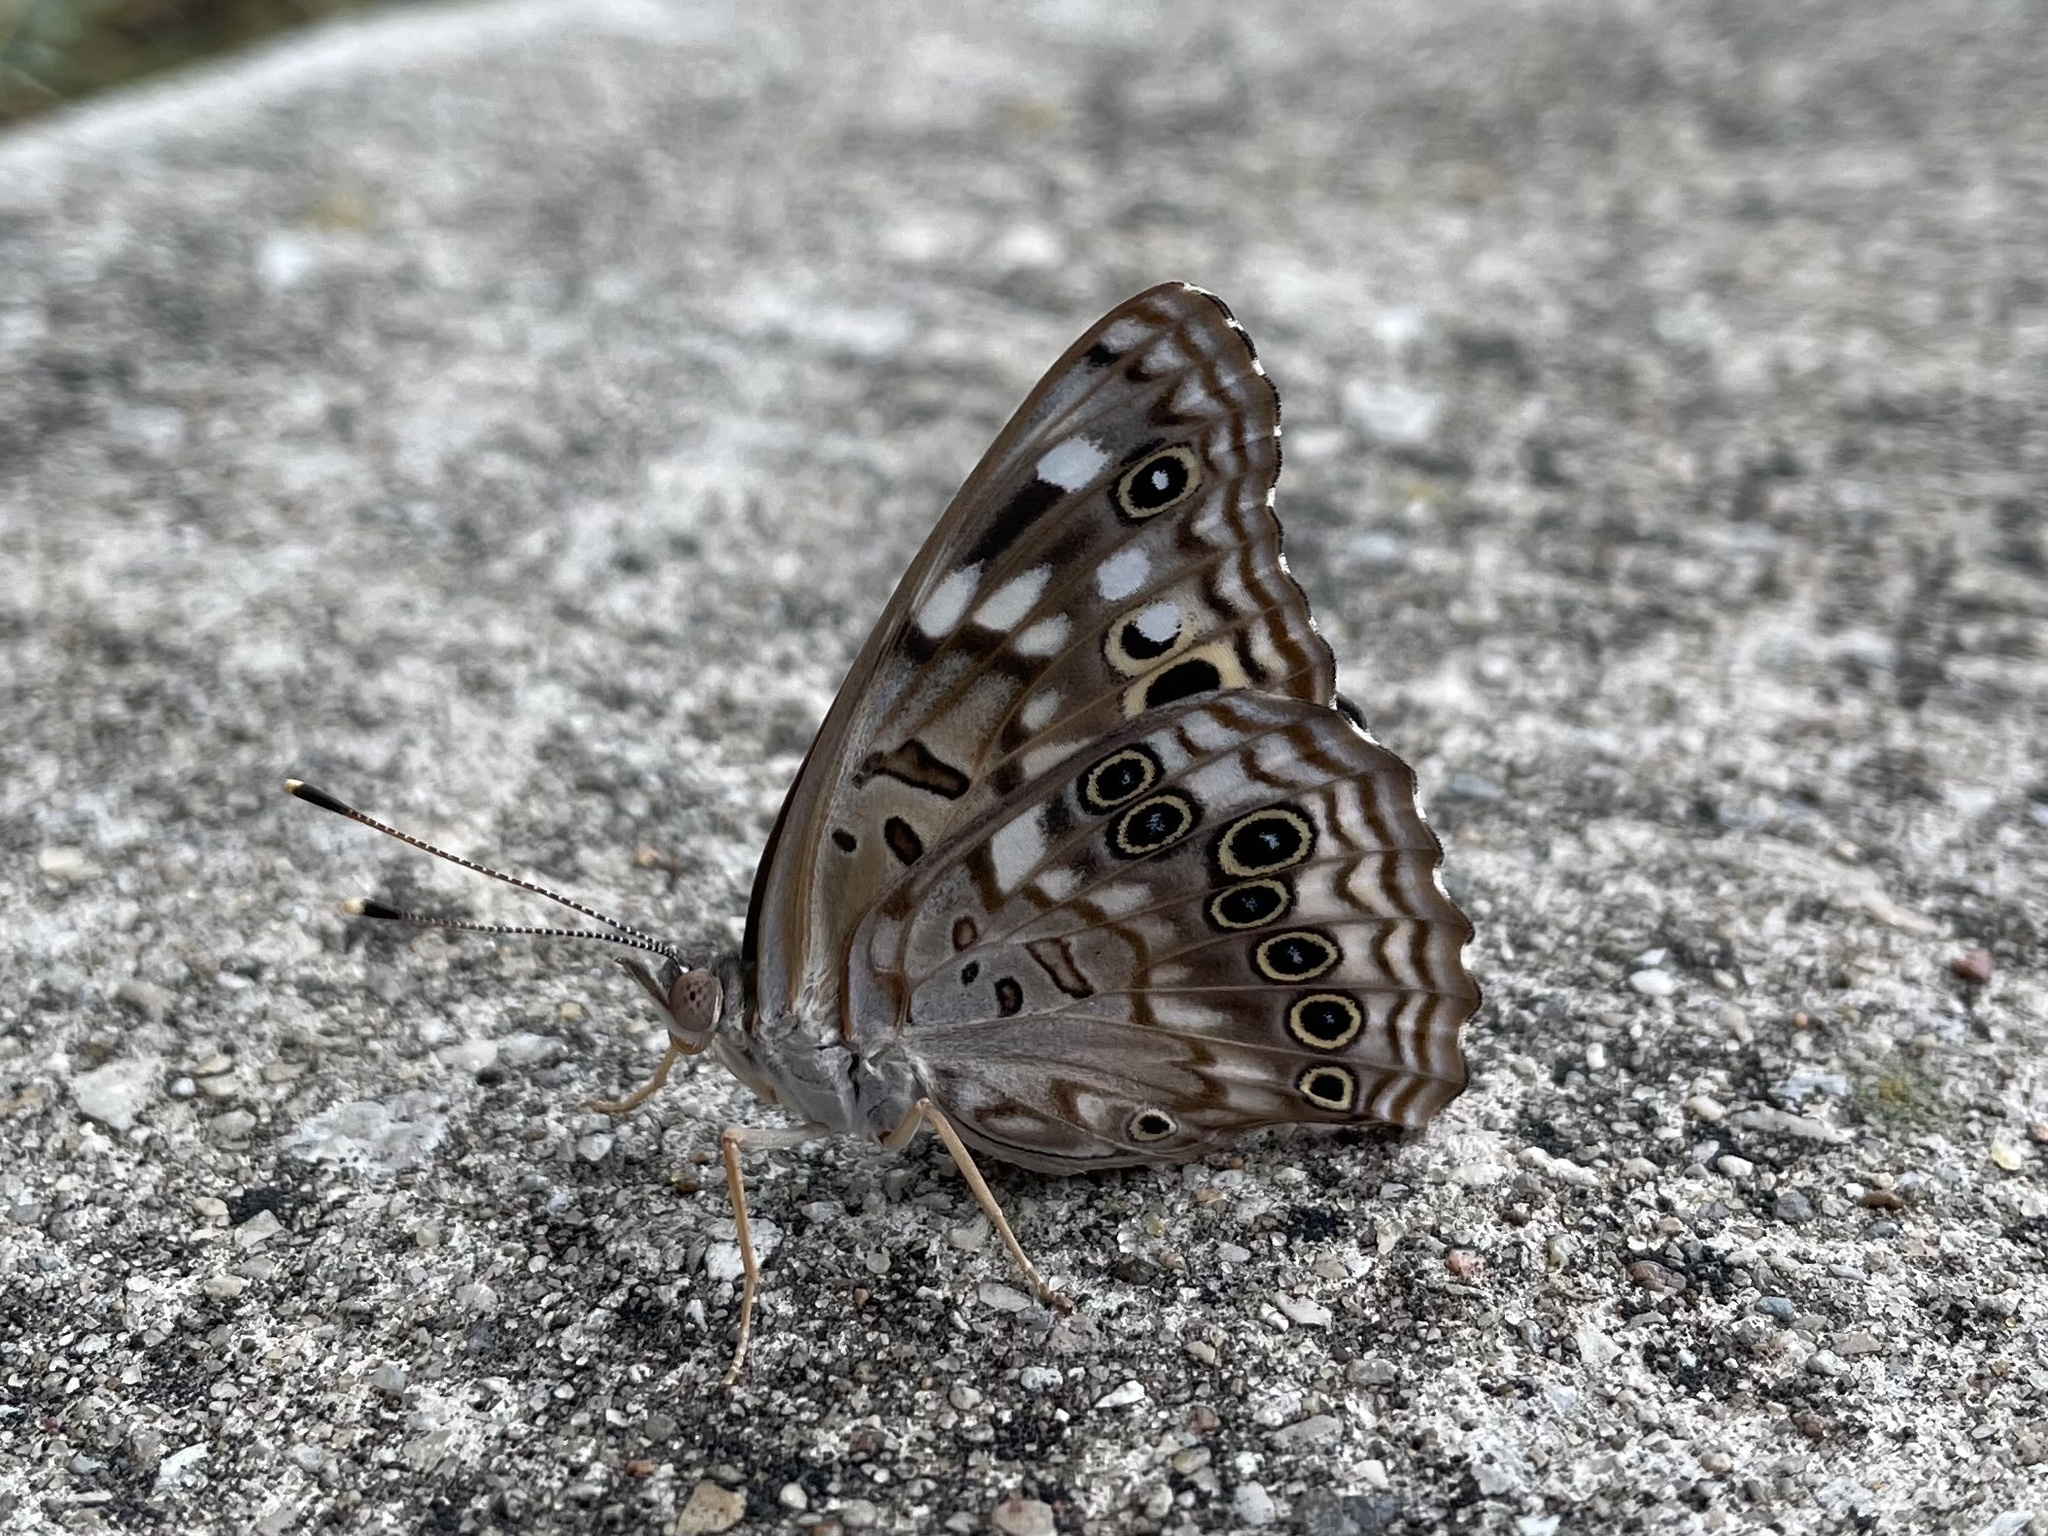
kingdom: Animalia
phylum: Arthropoda
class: Insecta
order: Lepidoptera
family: Nymphalidae
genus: Asterocampa
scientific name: Asterocampa celtis
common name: Hackberry emperor
